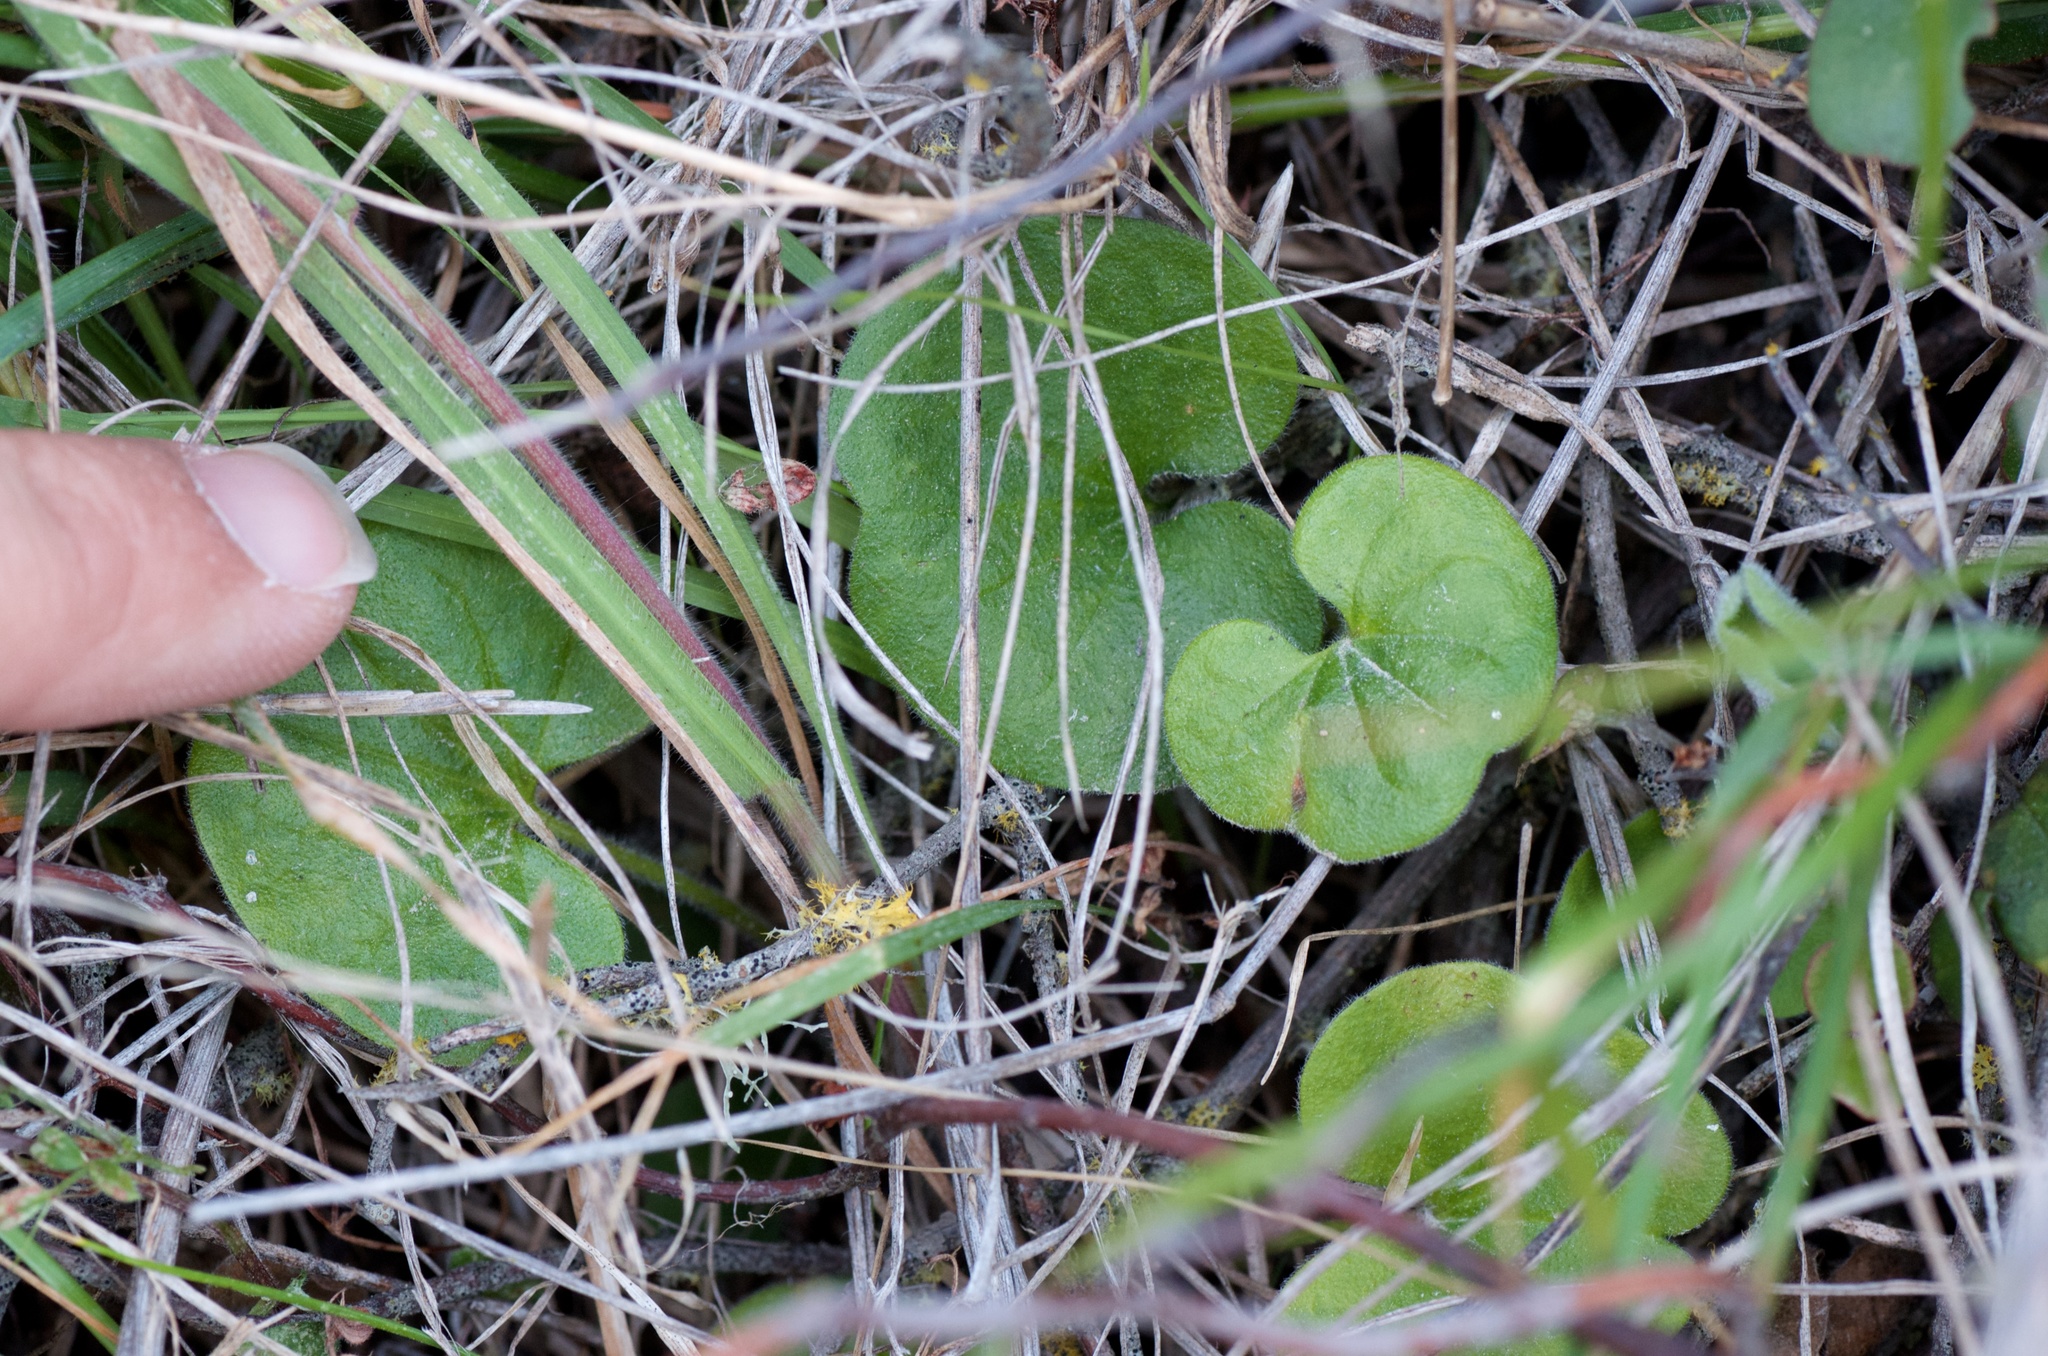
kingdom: Plantae
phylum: Tracheophyta
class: Magnoliopsida
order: Solanales
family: Convolvulaceae
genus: Dichondra
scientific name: Dichondra repens
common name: Kidneyweed
